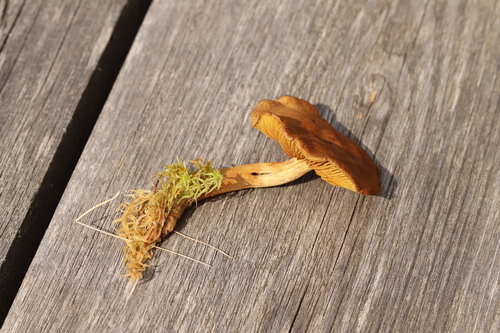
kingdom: Fungi
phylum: Basidiomycota
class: Agaricomycetes
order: Agaricales
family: Cortinariaceae
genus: Cortinarius
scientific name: Cortinarius chrysolitus
